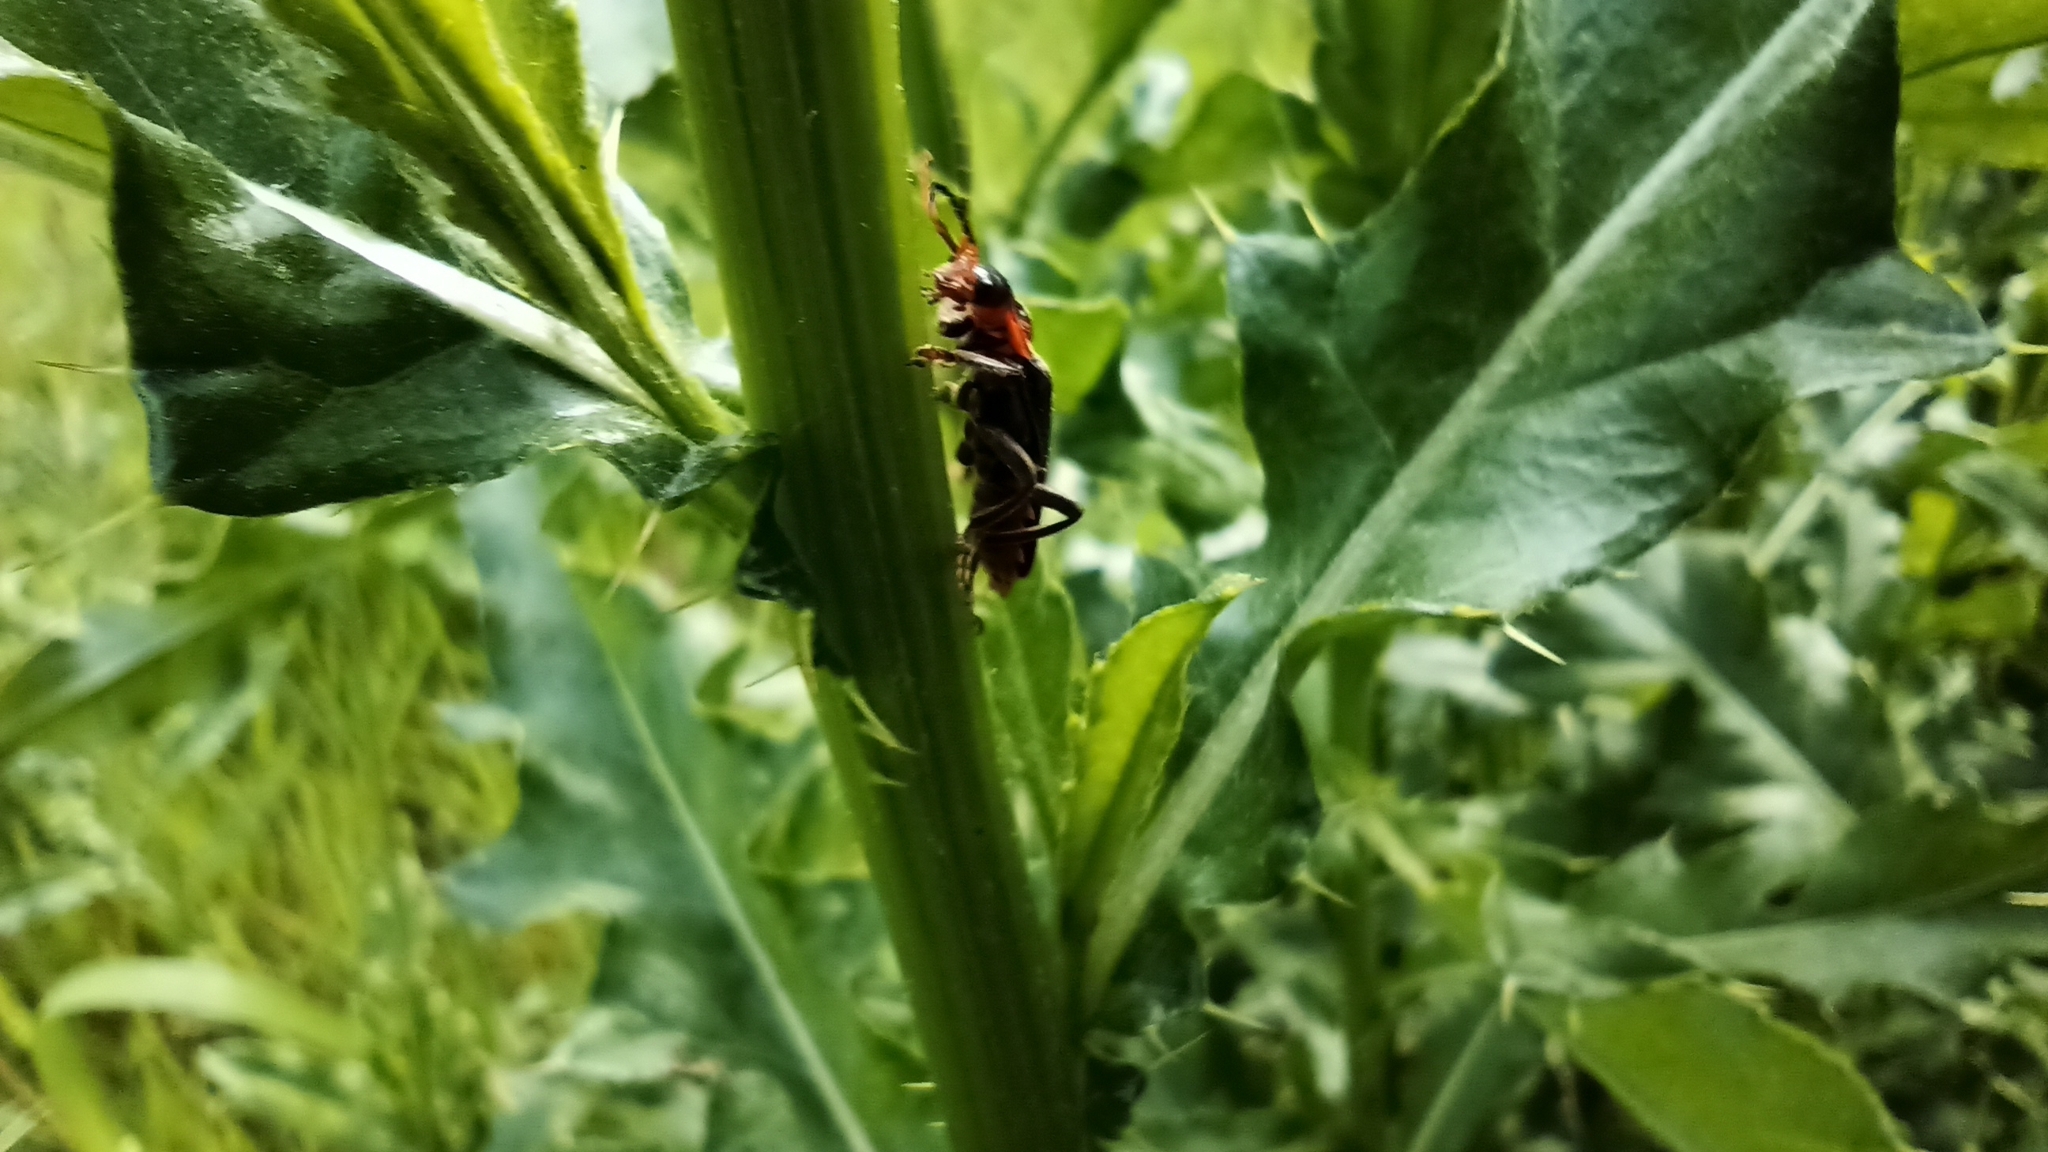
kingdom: Animalia
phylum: Arthropoda
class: Insecta
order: Coleoptera
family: Cantharidae
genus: Cantharis
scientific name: Cantharis fusca
